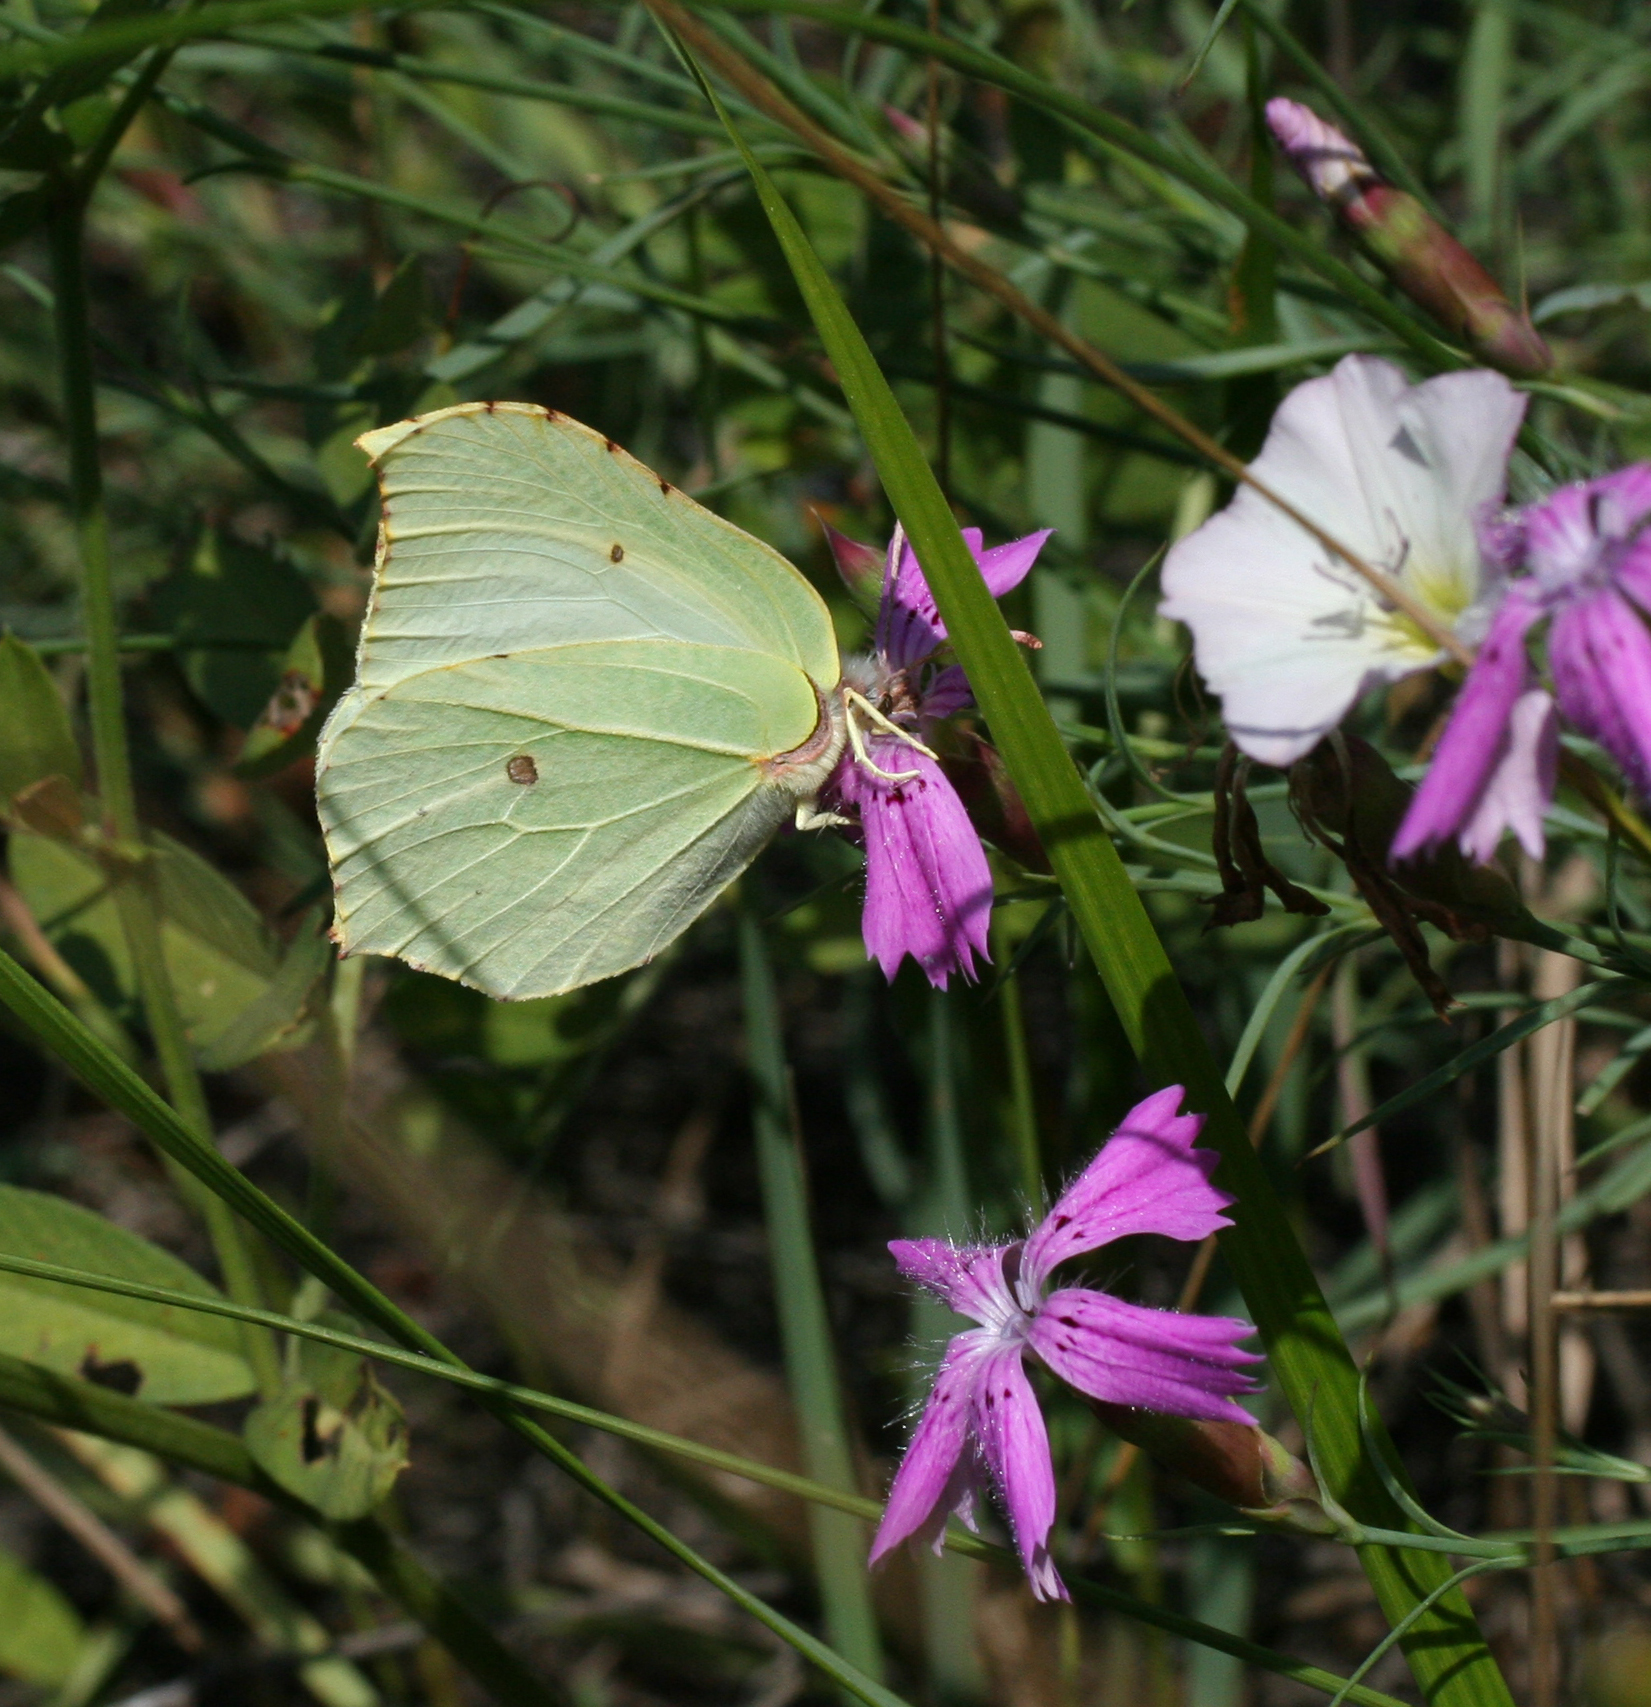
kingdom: Plantae
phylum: Tracheophyta
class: Magnoliopsida
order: Caryophyllales
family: Caryophyllaceae
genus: Dianthus
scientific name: Dianthus chinensis
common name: Rainbow pink
